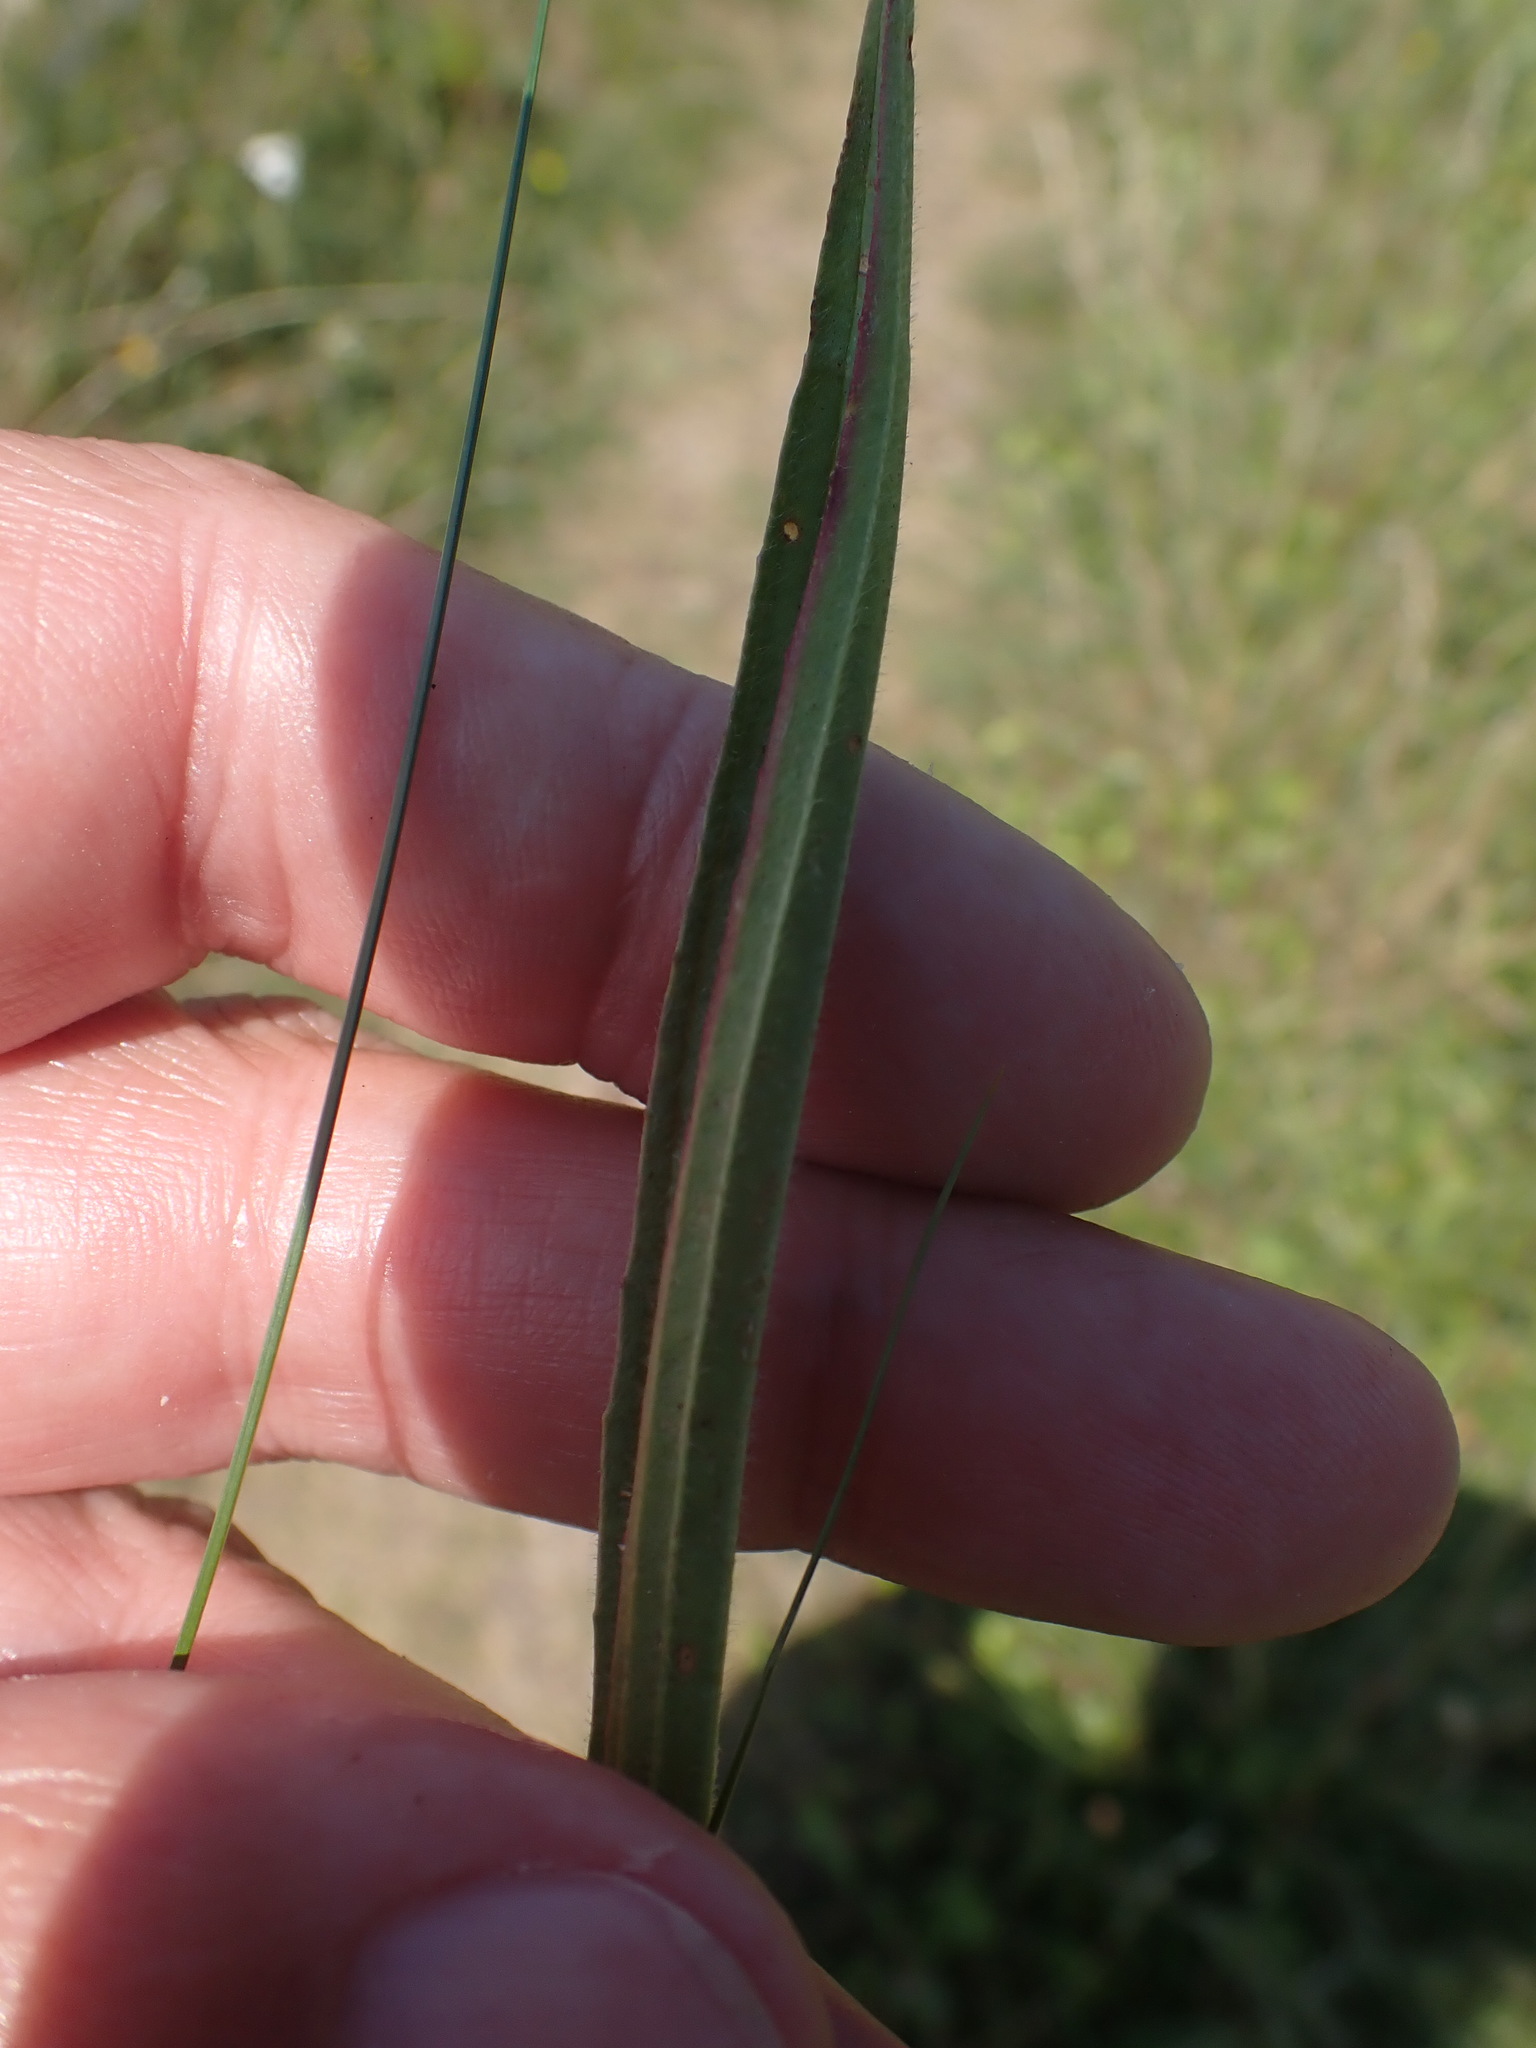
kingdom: Plantae
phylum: Tracheophyta
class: Magnoliopsida
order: Lamiales
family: Plantaginaceae
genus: Plantago
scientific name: Plantago lanceolata
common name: Ribwort plantain
